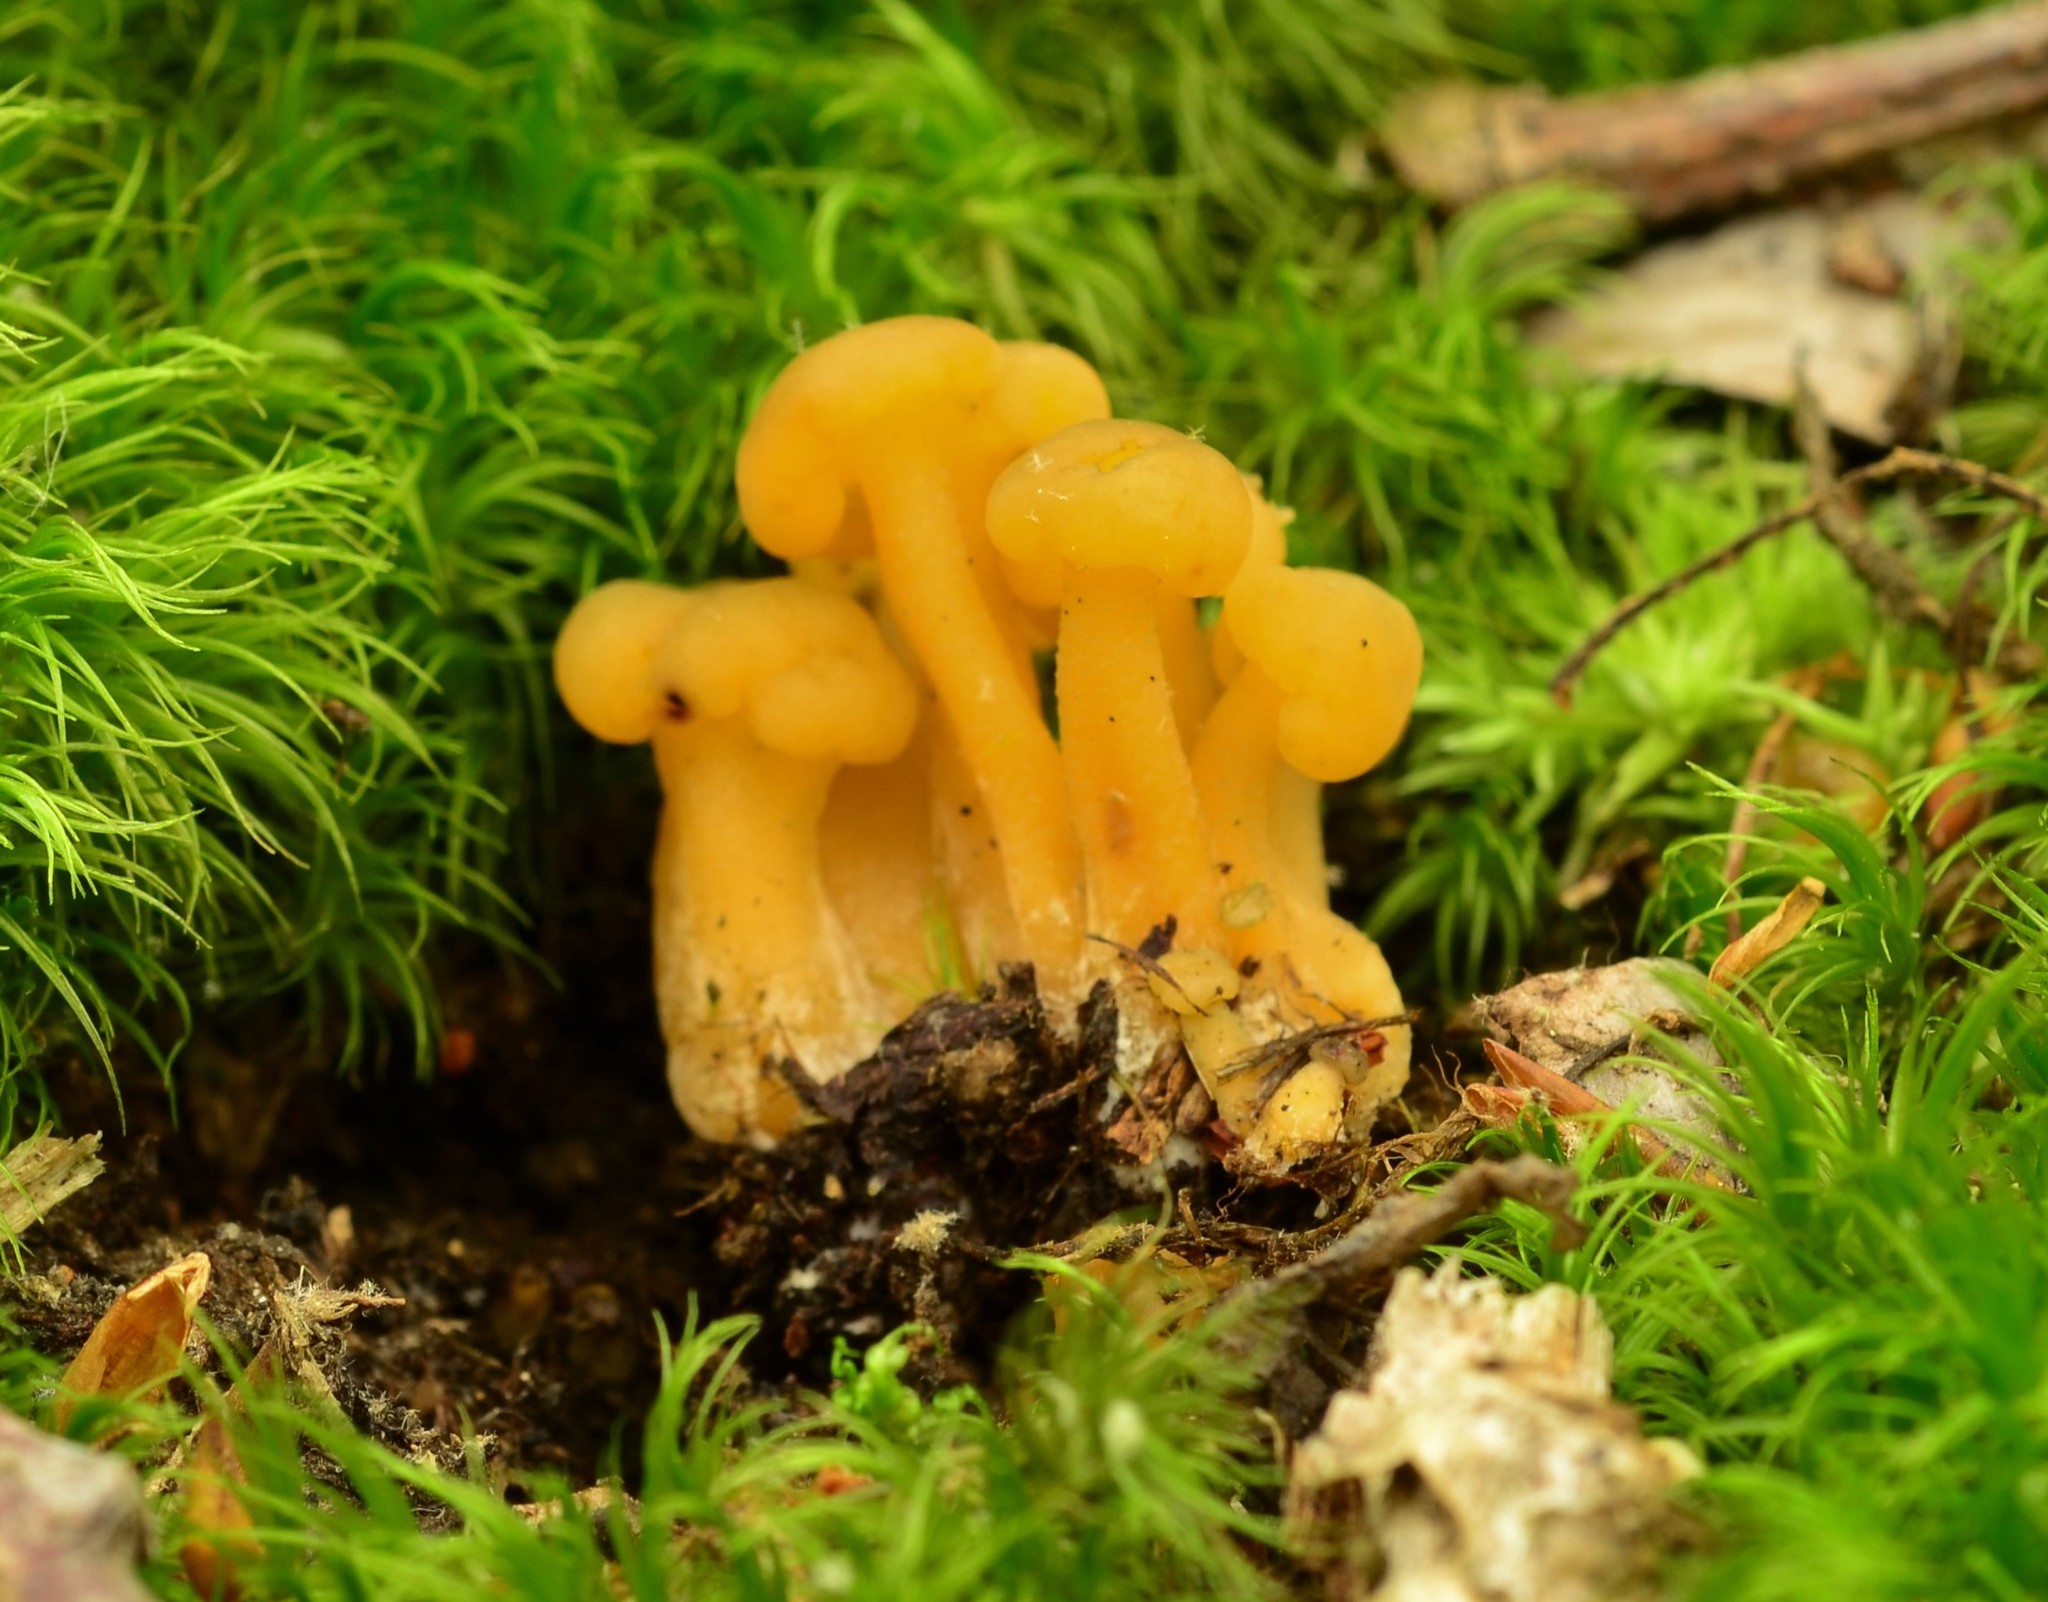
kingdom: Fungi
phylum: Ascomycota
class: Leotiomycetes
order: Leotiales
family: Leotiaceae
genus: Leotia
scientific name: Leotia lubrica
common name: Jellybaby
